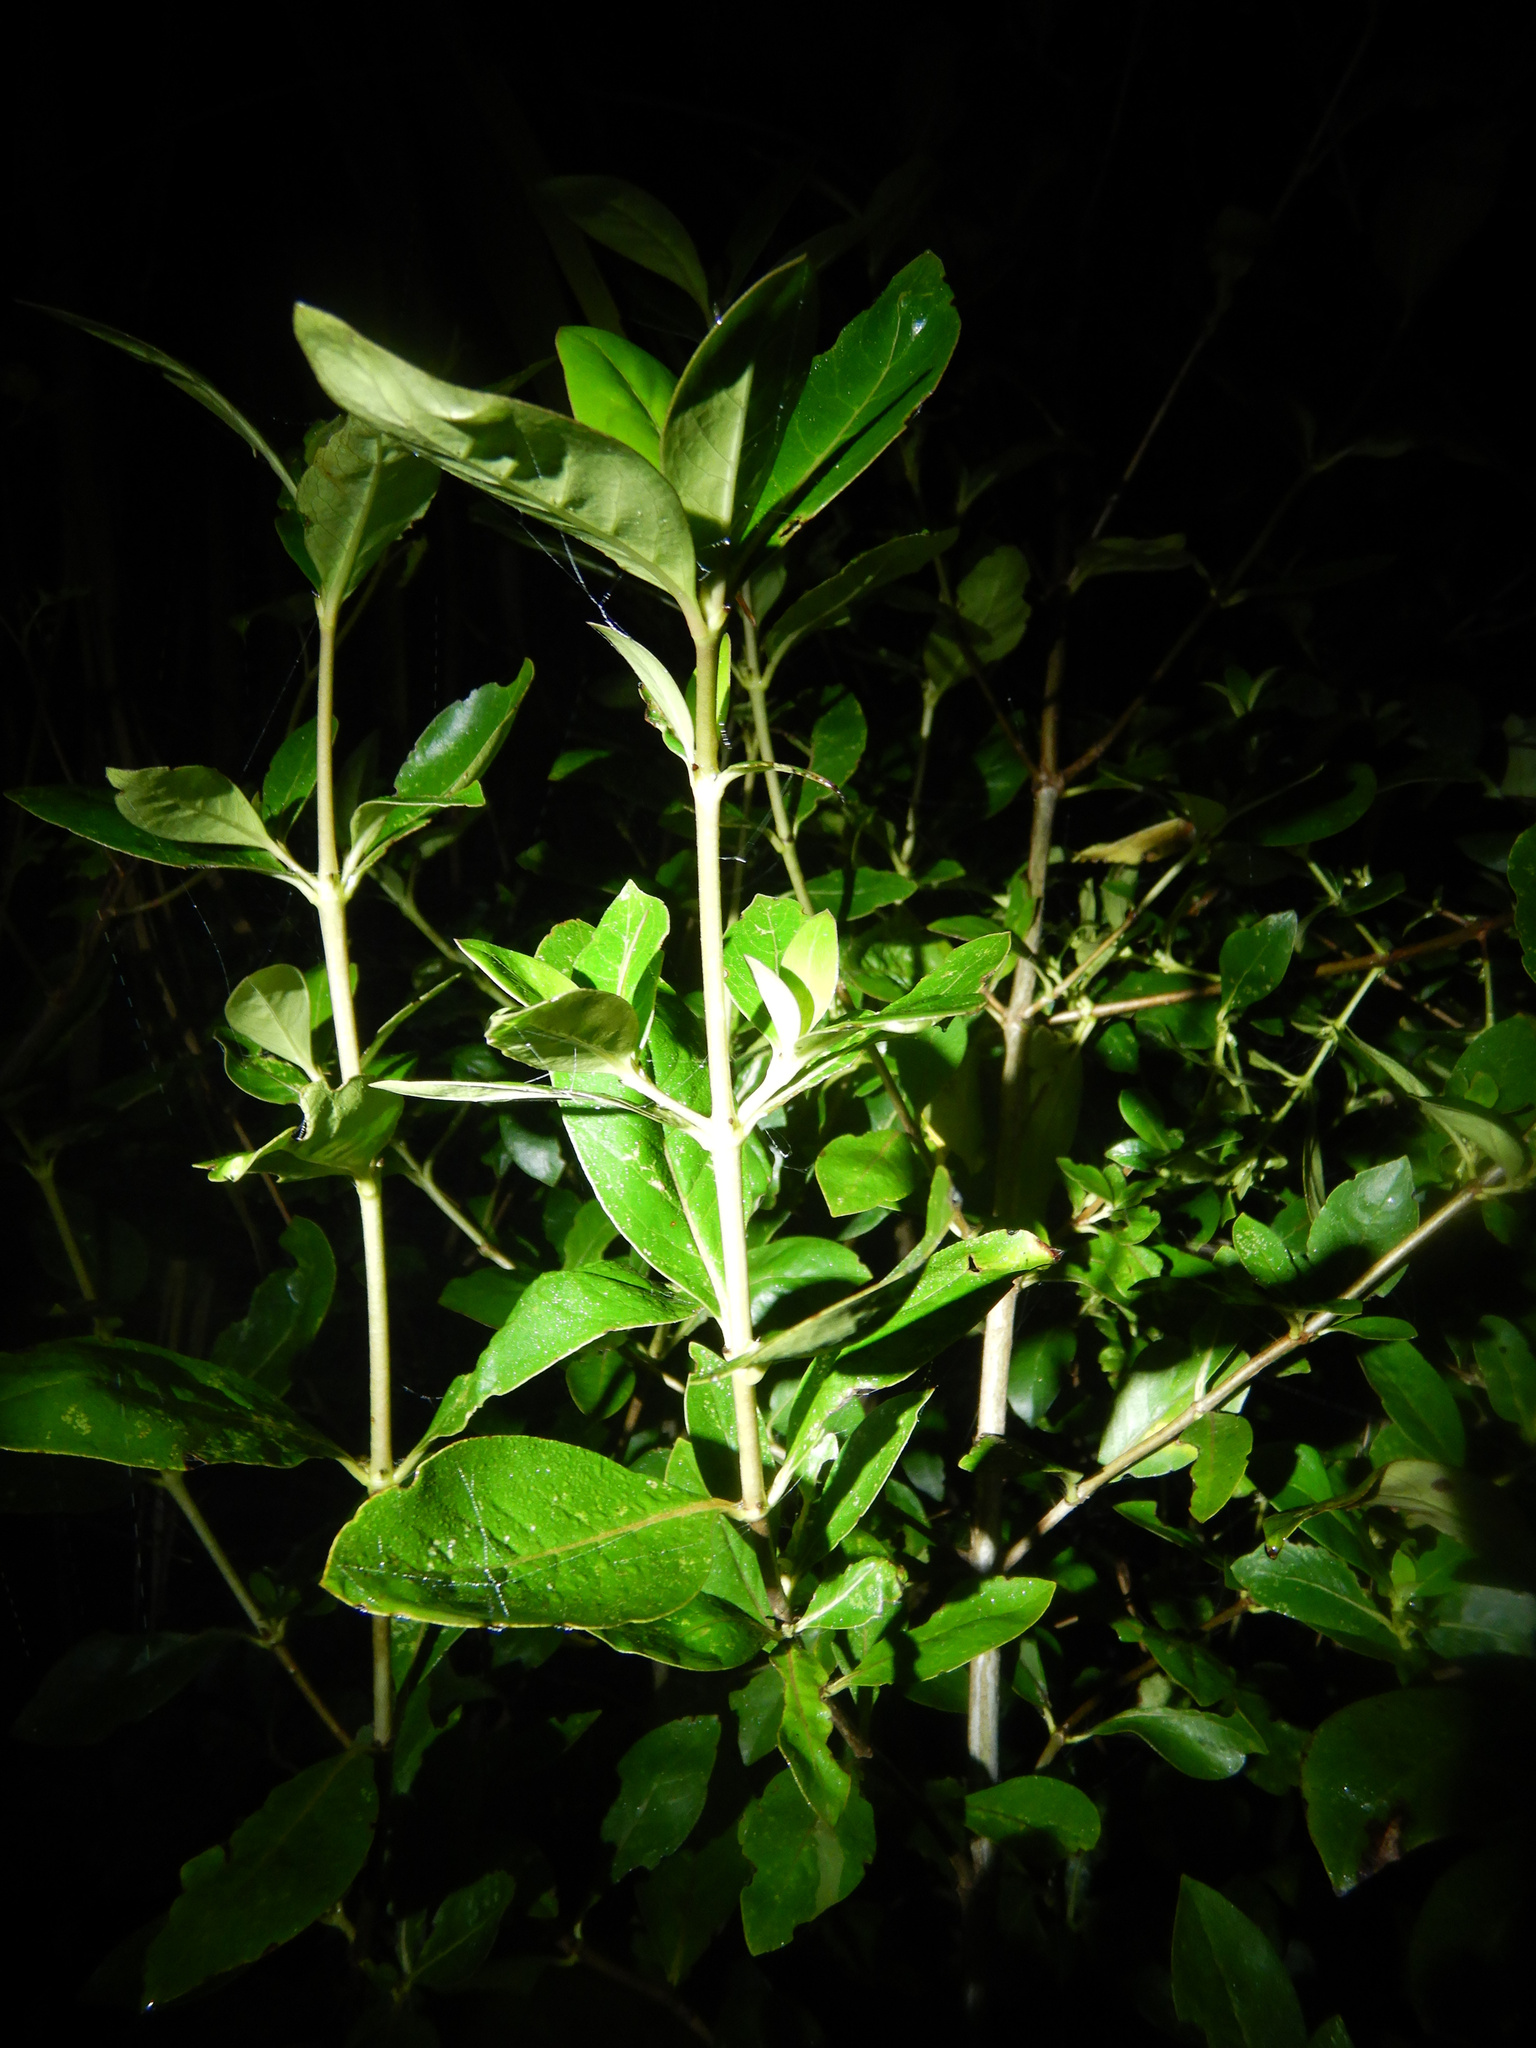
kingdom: Plantae
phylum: Tracheophyta
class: Magnoliopsida
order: Gentianales
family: Rubiaceae
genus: Coprosma
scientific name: Coprosma robusta
